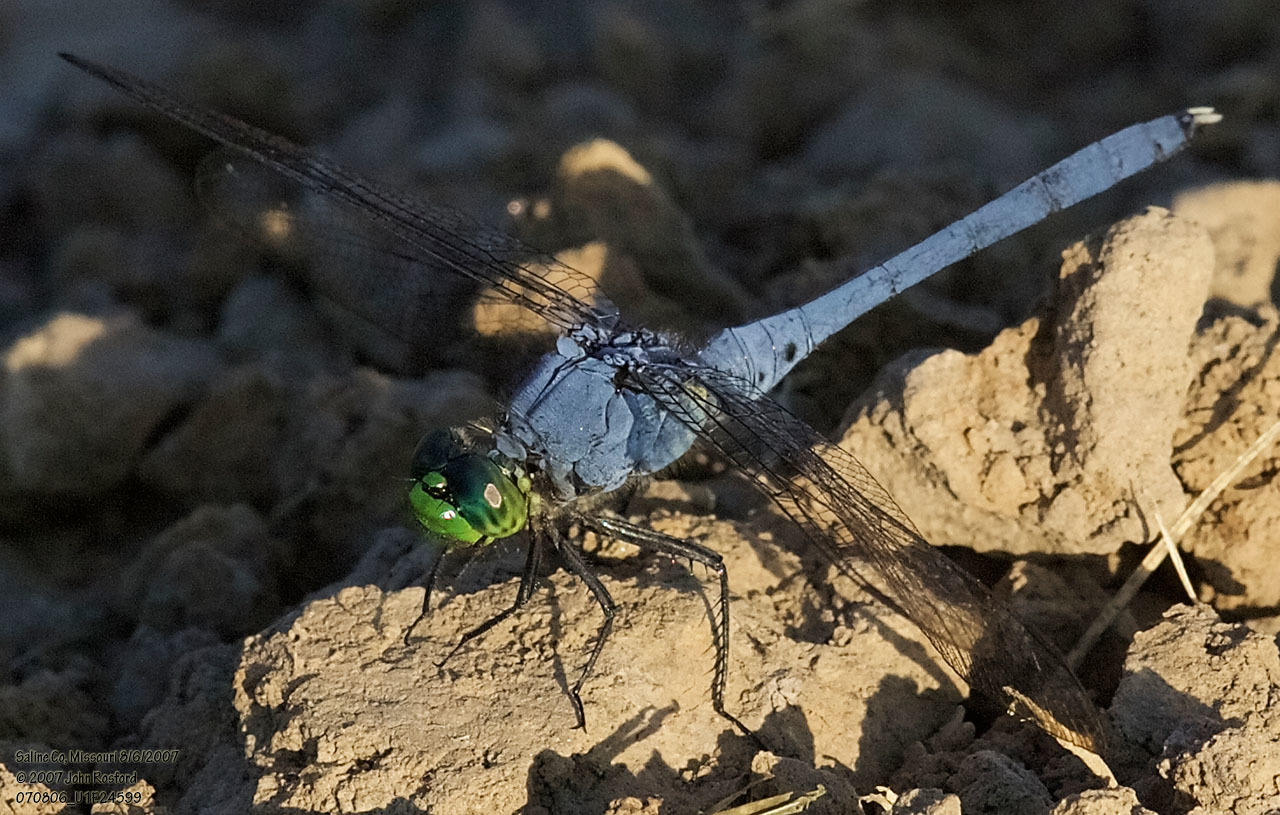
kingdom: Animalia
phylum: Arthropoda
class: Insecta
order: Odonata
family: Libellulidae
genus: Erythemis
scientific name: Erythemis simplicicollis
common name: Eastern pondhawk
